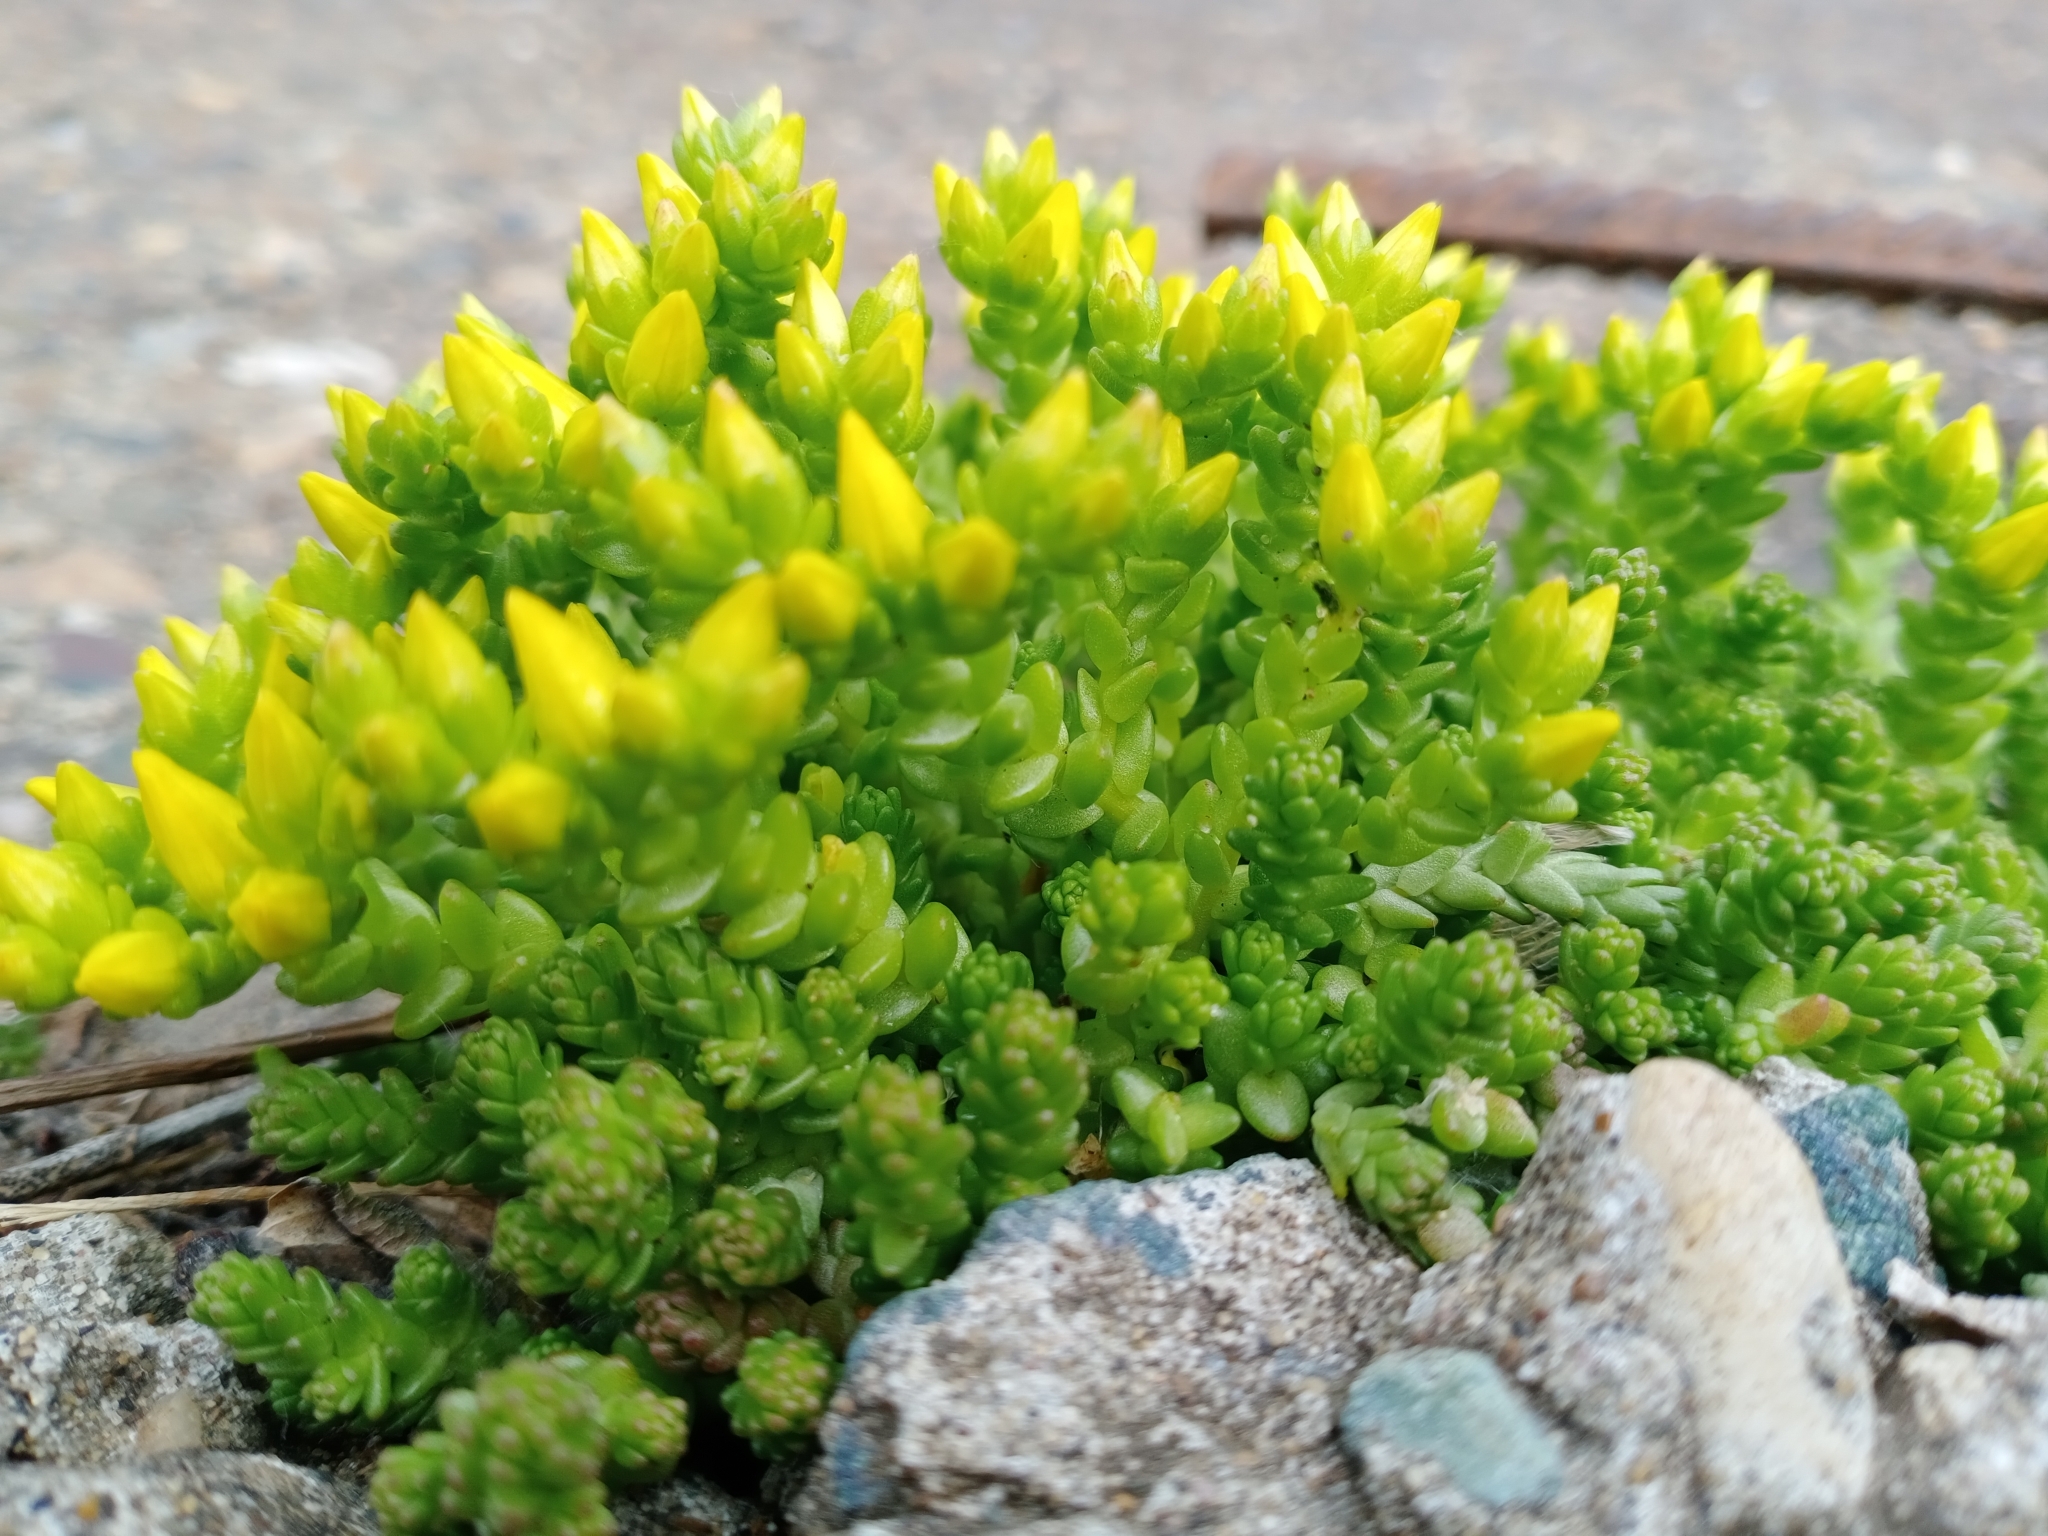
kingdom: Plantae
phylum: Tracheophyta
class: Magnoliopsida
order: Saxifragales
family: Crassulaceae
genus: Sedum
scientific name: Sedum acre
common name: Biting stonecrop
